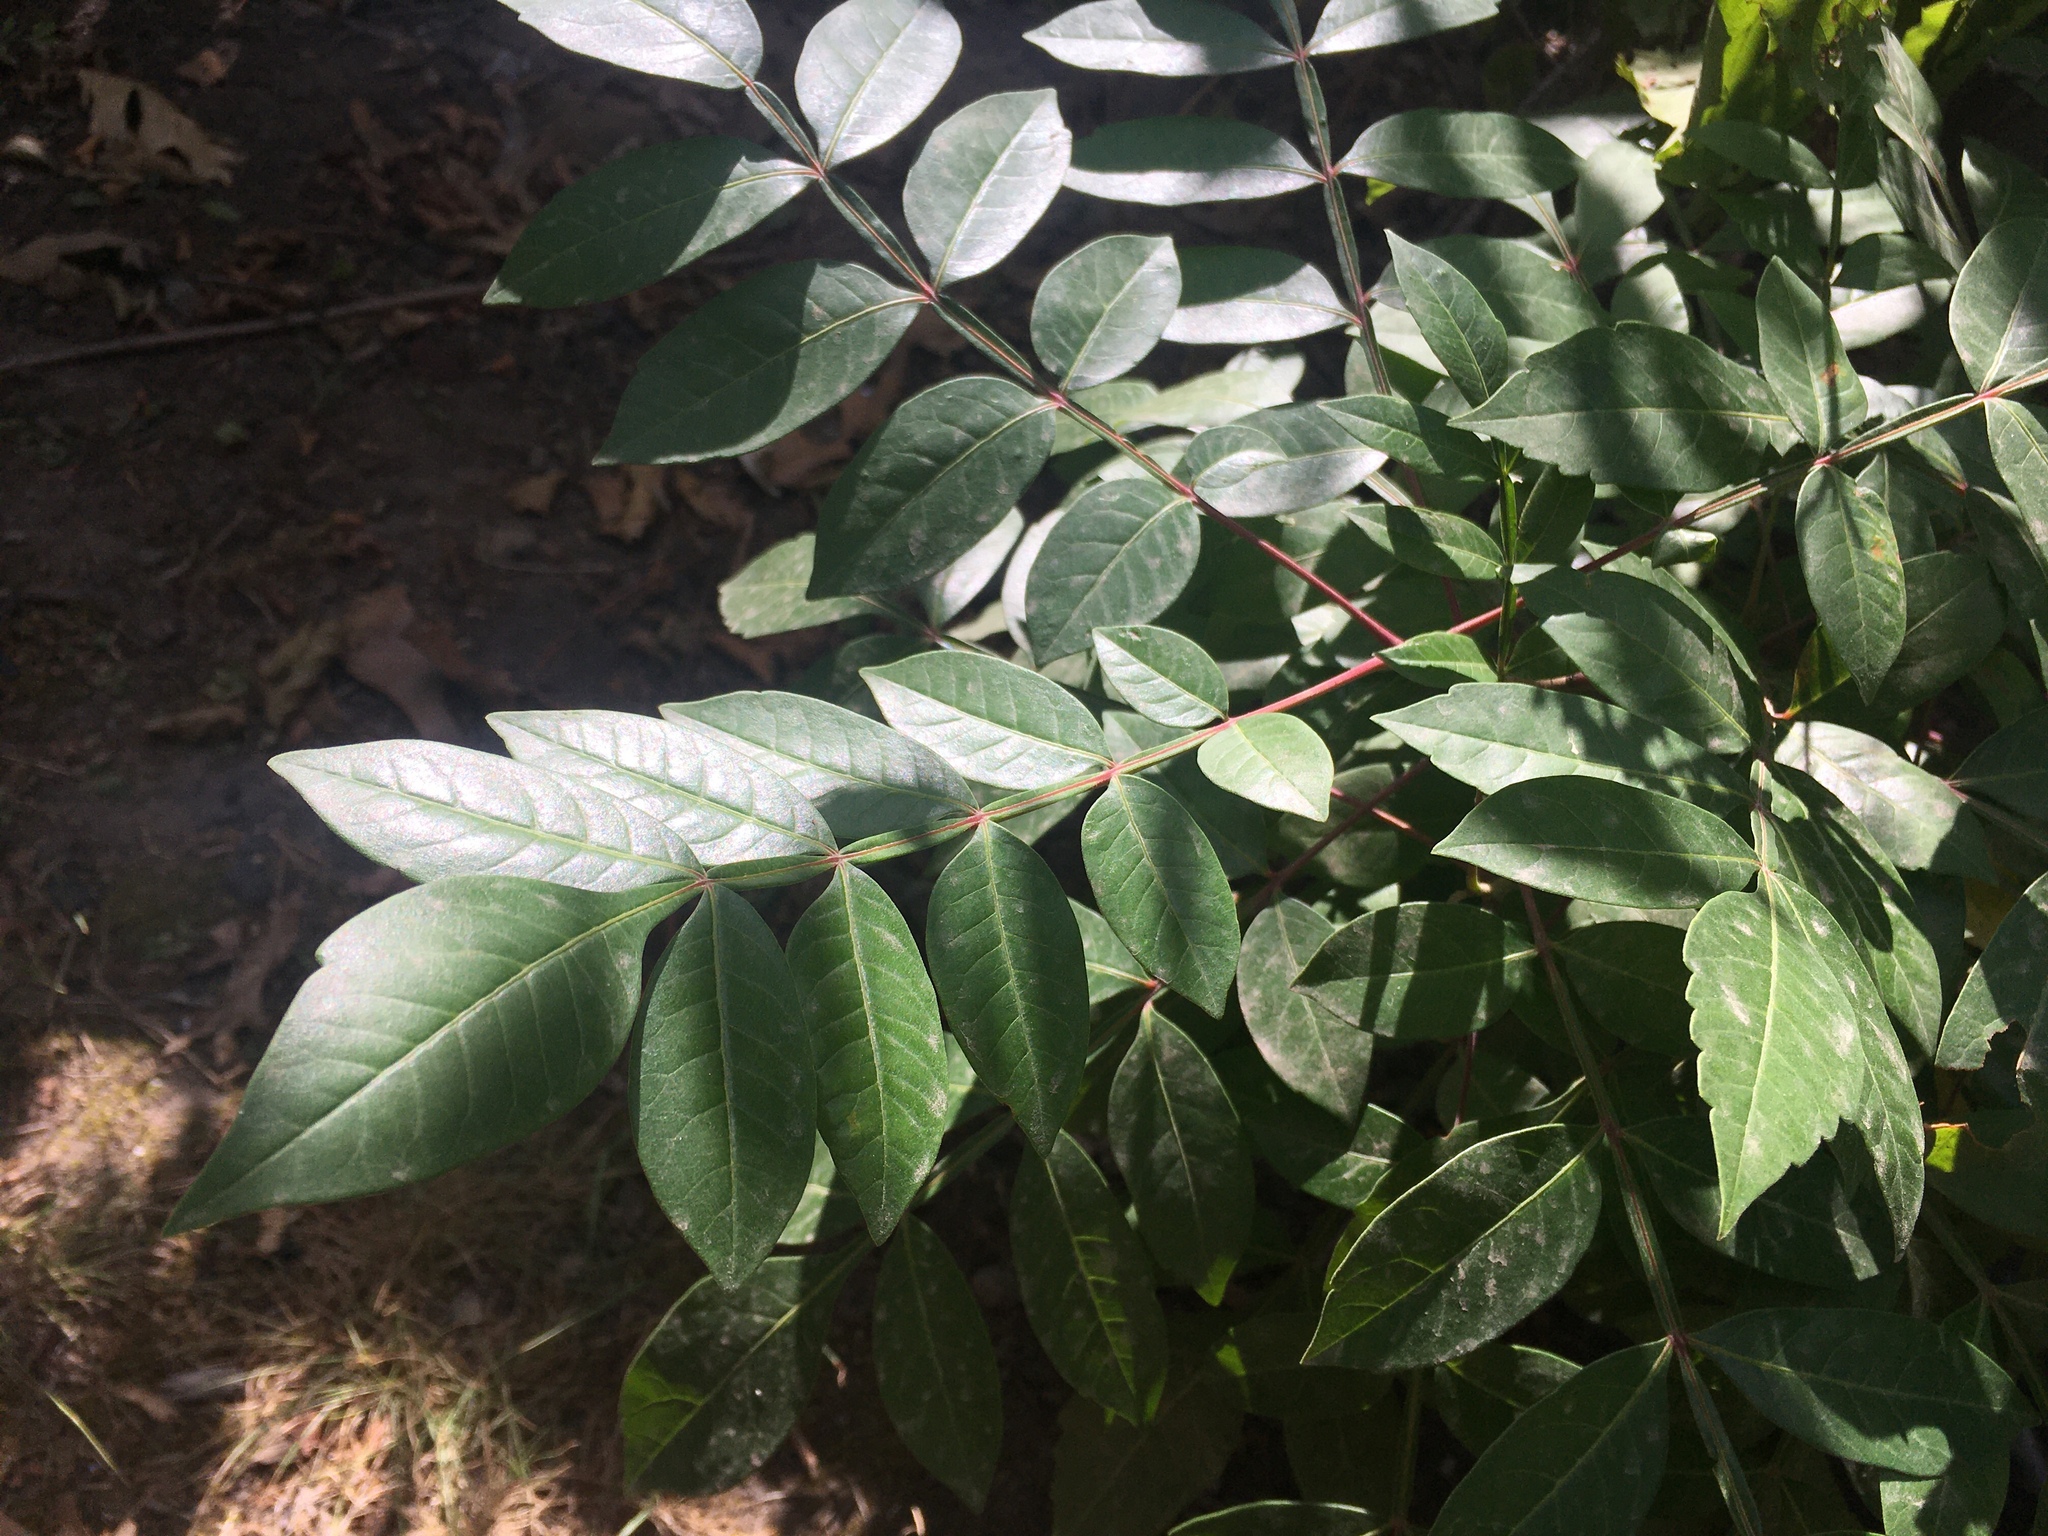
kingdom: Plantae
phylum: Tracheophyta
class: Magnoliopsida
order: Sapindales
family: Anacardiaceae
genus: Rhus
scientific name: Rhus copallina
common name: Shining sumac
